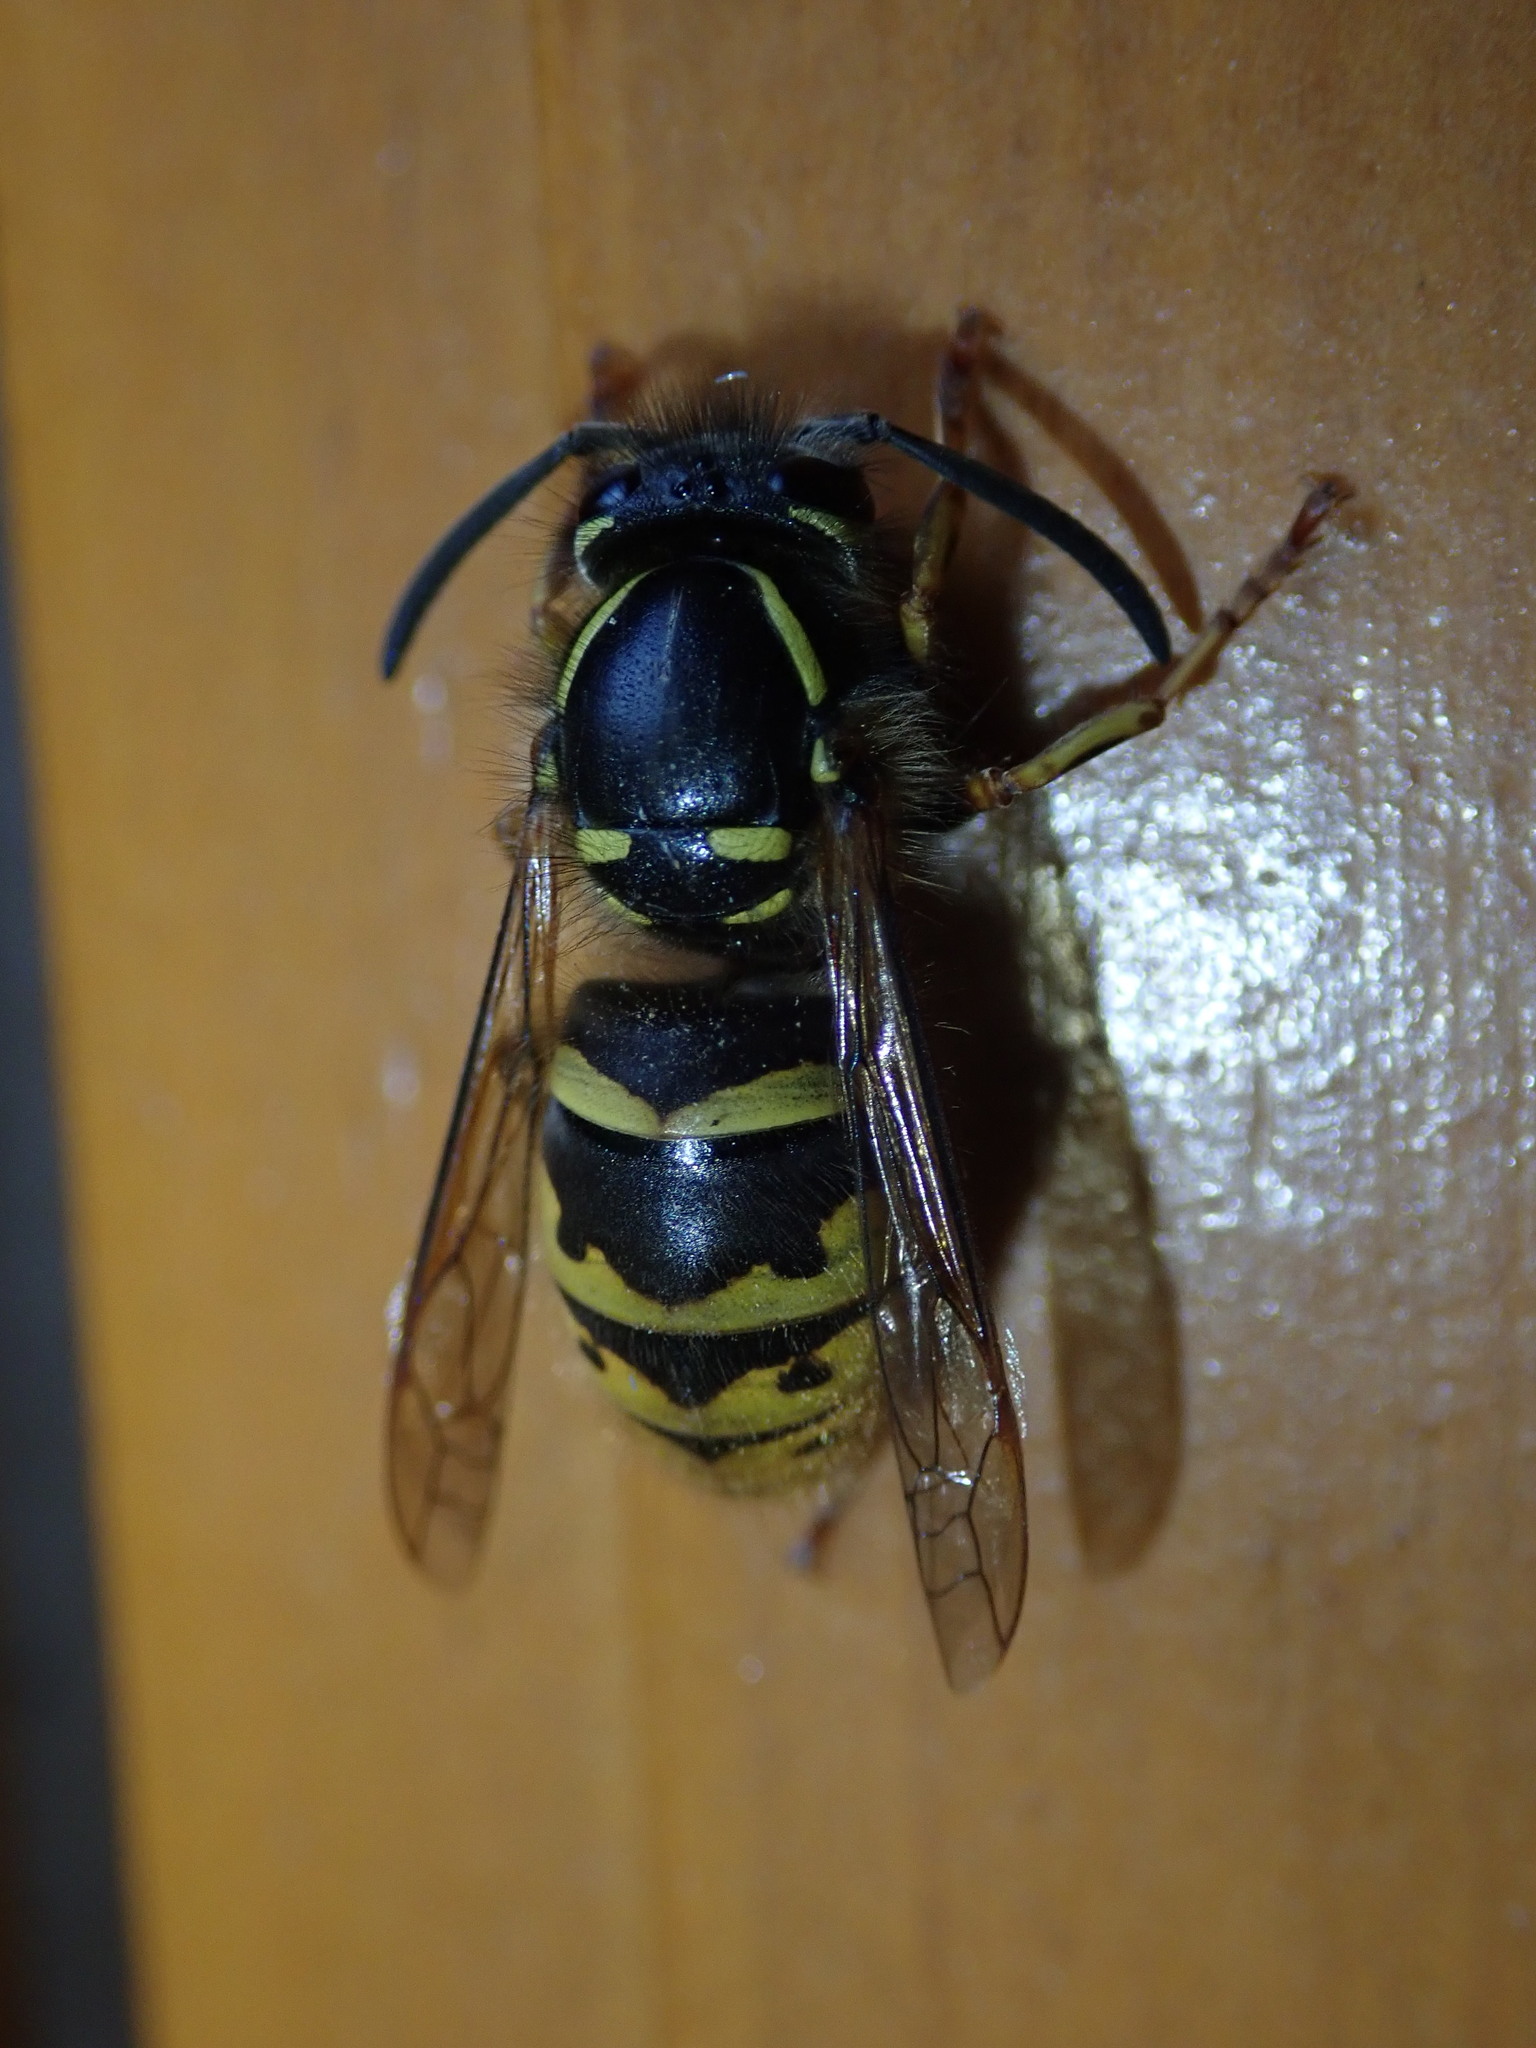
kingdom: Animalia
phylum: Arthropoda
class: Insecta
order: Hymenoptera
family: Vespidae
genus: Vespula
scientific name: Vespula vulgaris
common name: Common wasp
